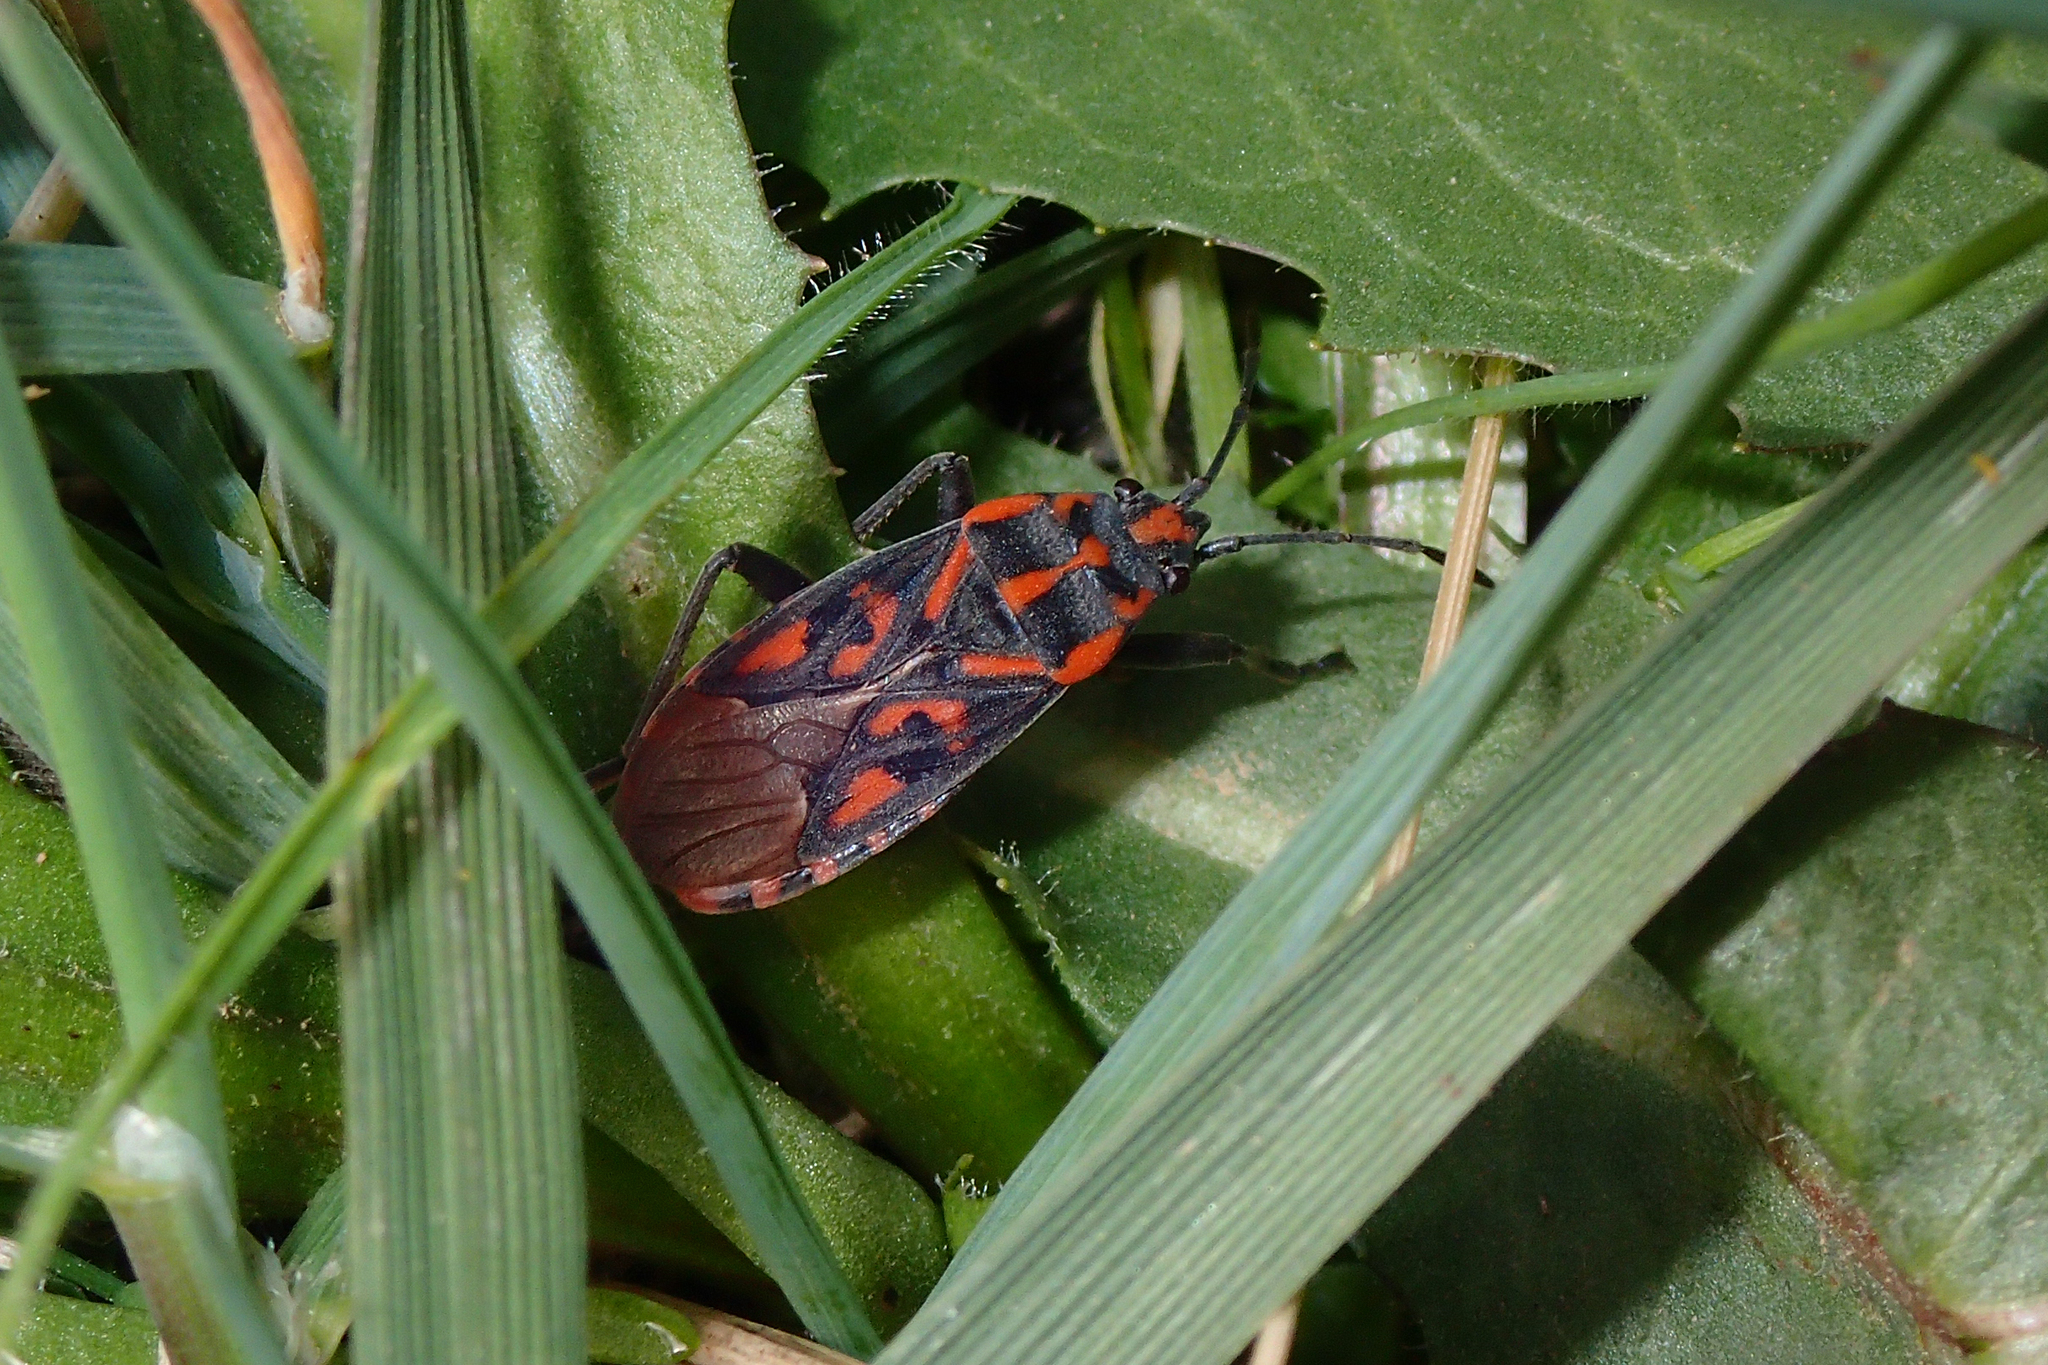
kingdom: Animalia
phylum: Arthropoda
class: Insecta
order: Hemiptera
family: Lygaeidae
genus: Spilostethus
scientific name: Spilostethus saxatilis
